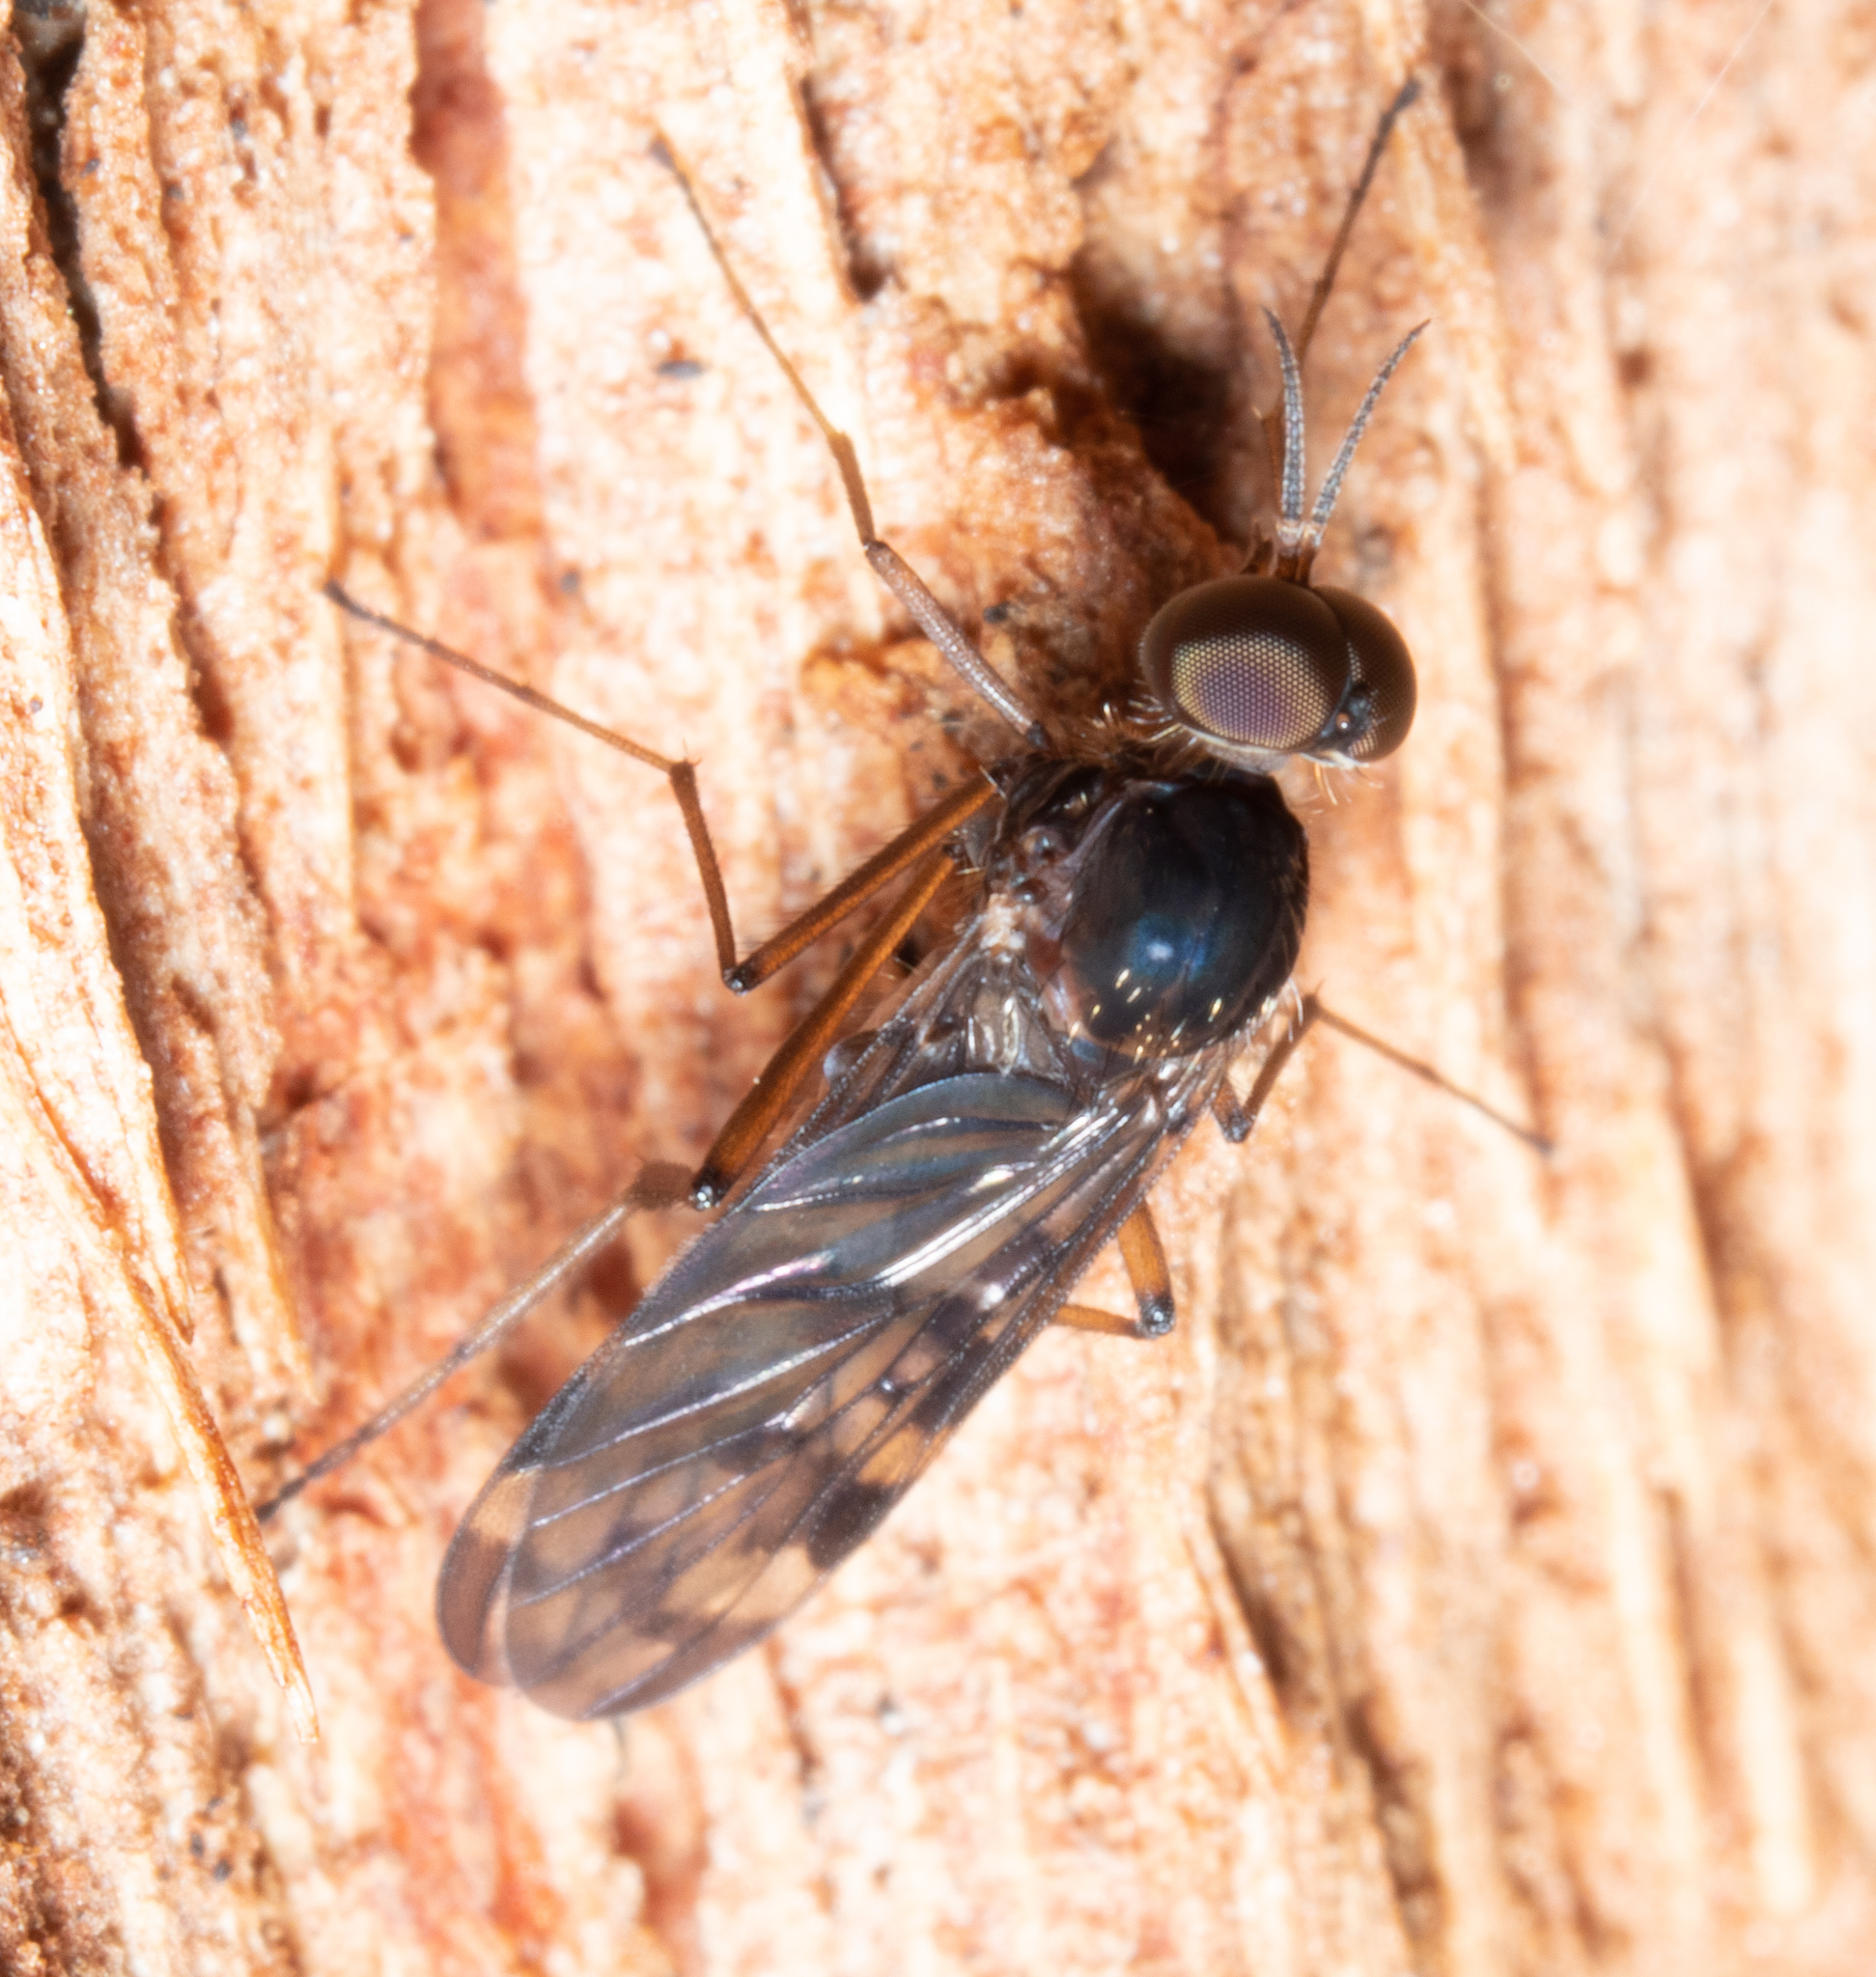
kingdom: Animalia
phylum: Arthropoda
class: Insecta
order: Diptera
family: Anisopodidae
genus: Sylvicola
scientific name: Sylvicola dubius
